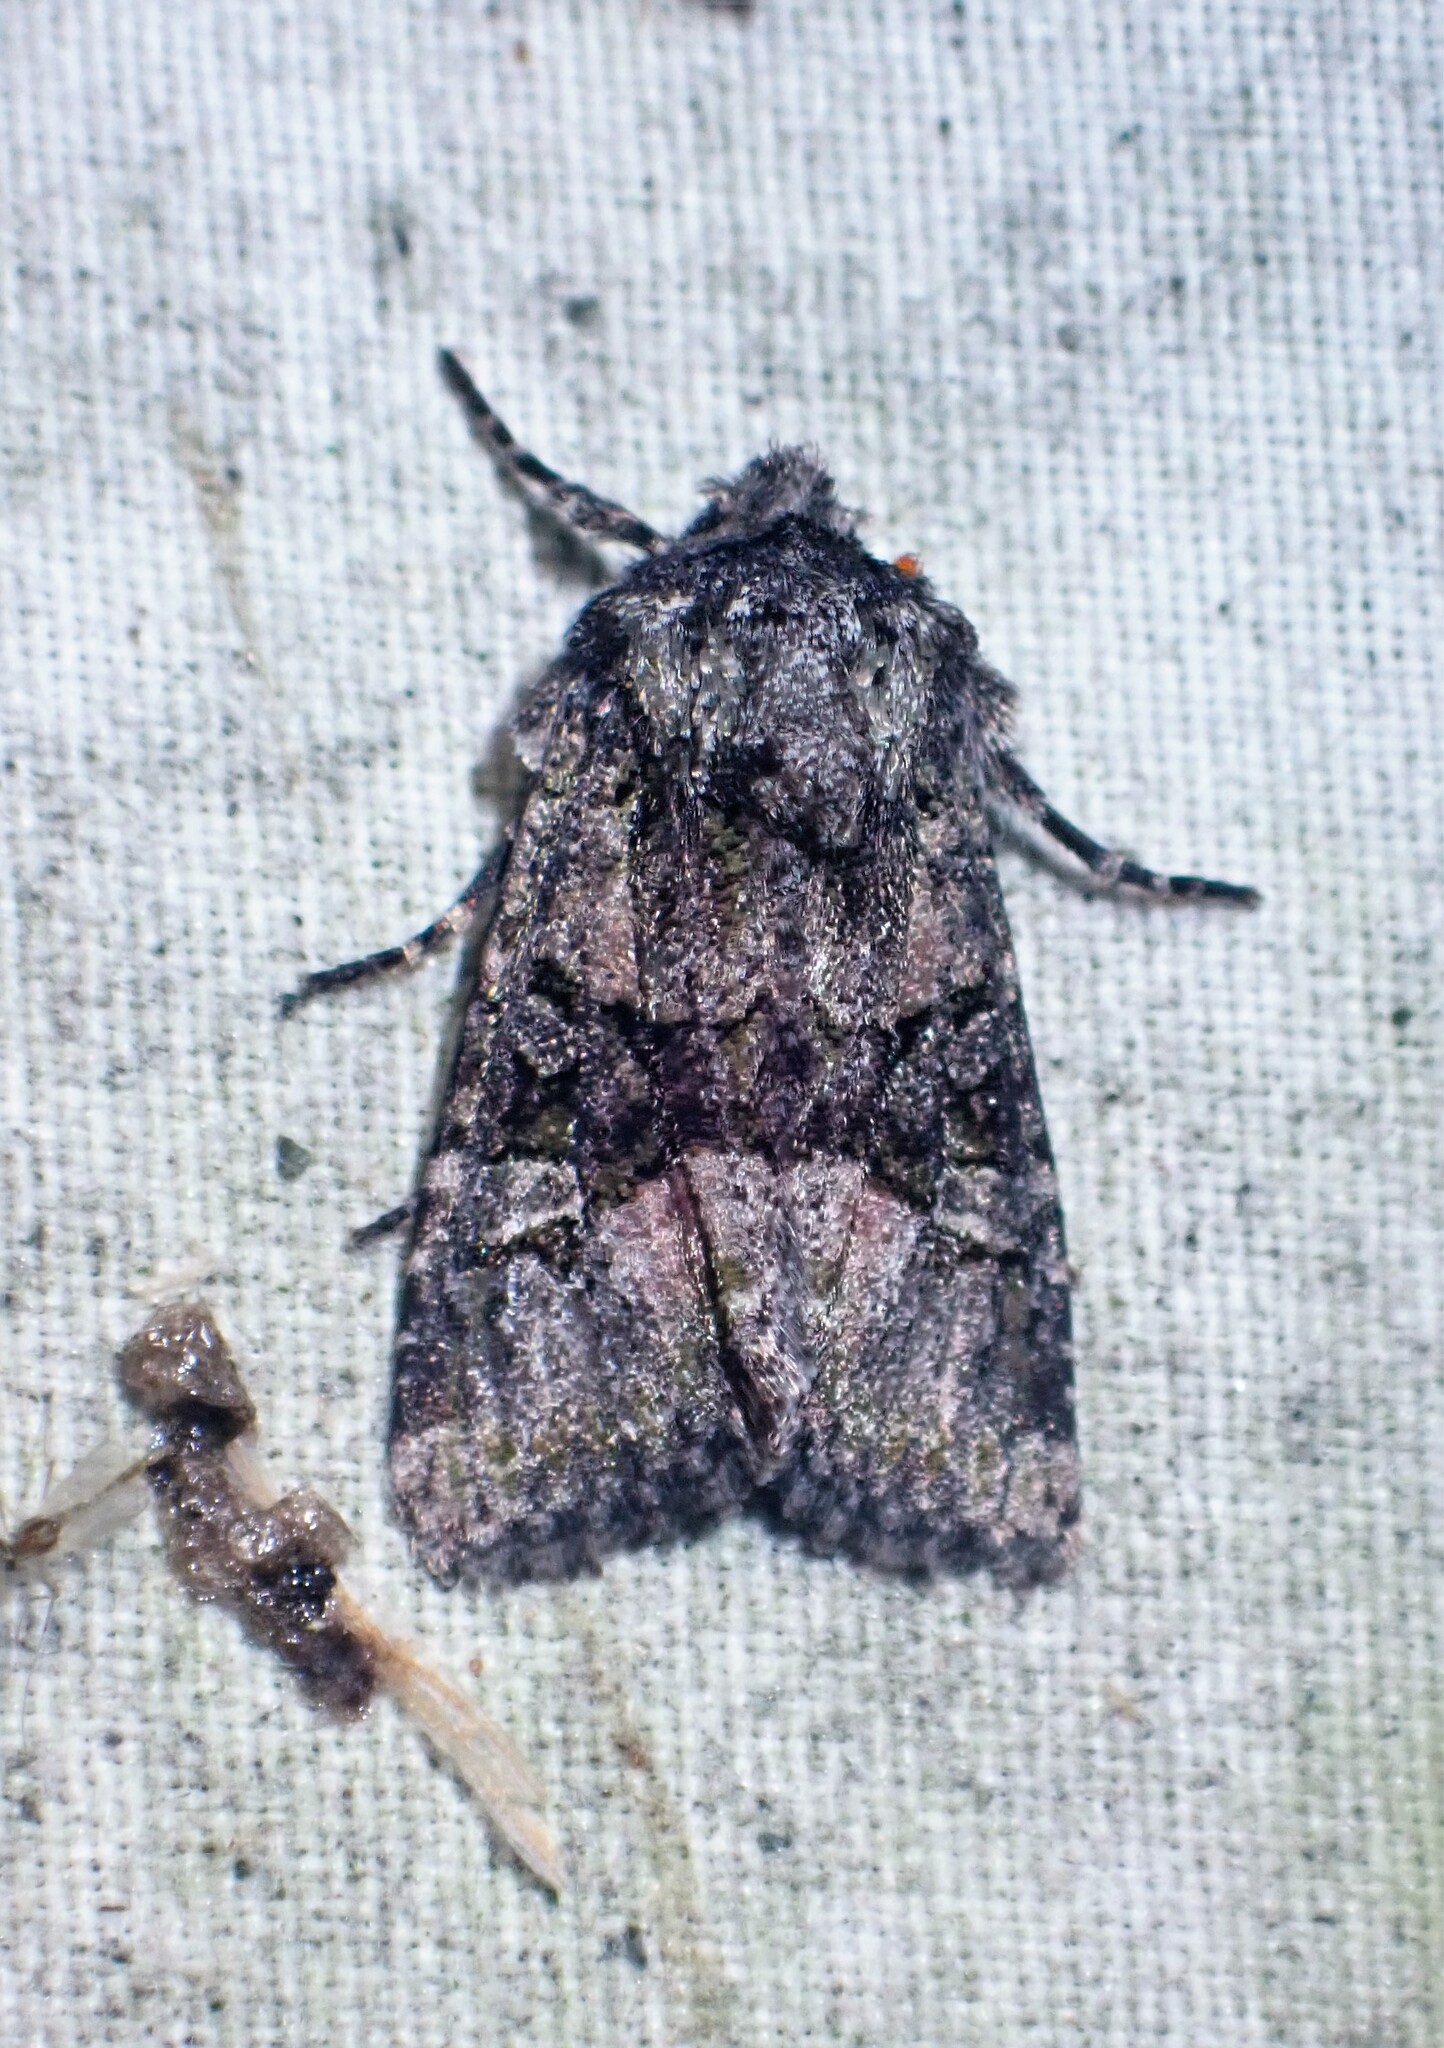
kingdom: Animalia
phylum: Arthropoda
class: Insecta
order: Lepidoptera
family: Noctuidae
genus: Lacinipolia
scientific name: Lacinipolia olivacea
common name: Olive arches moth
